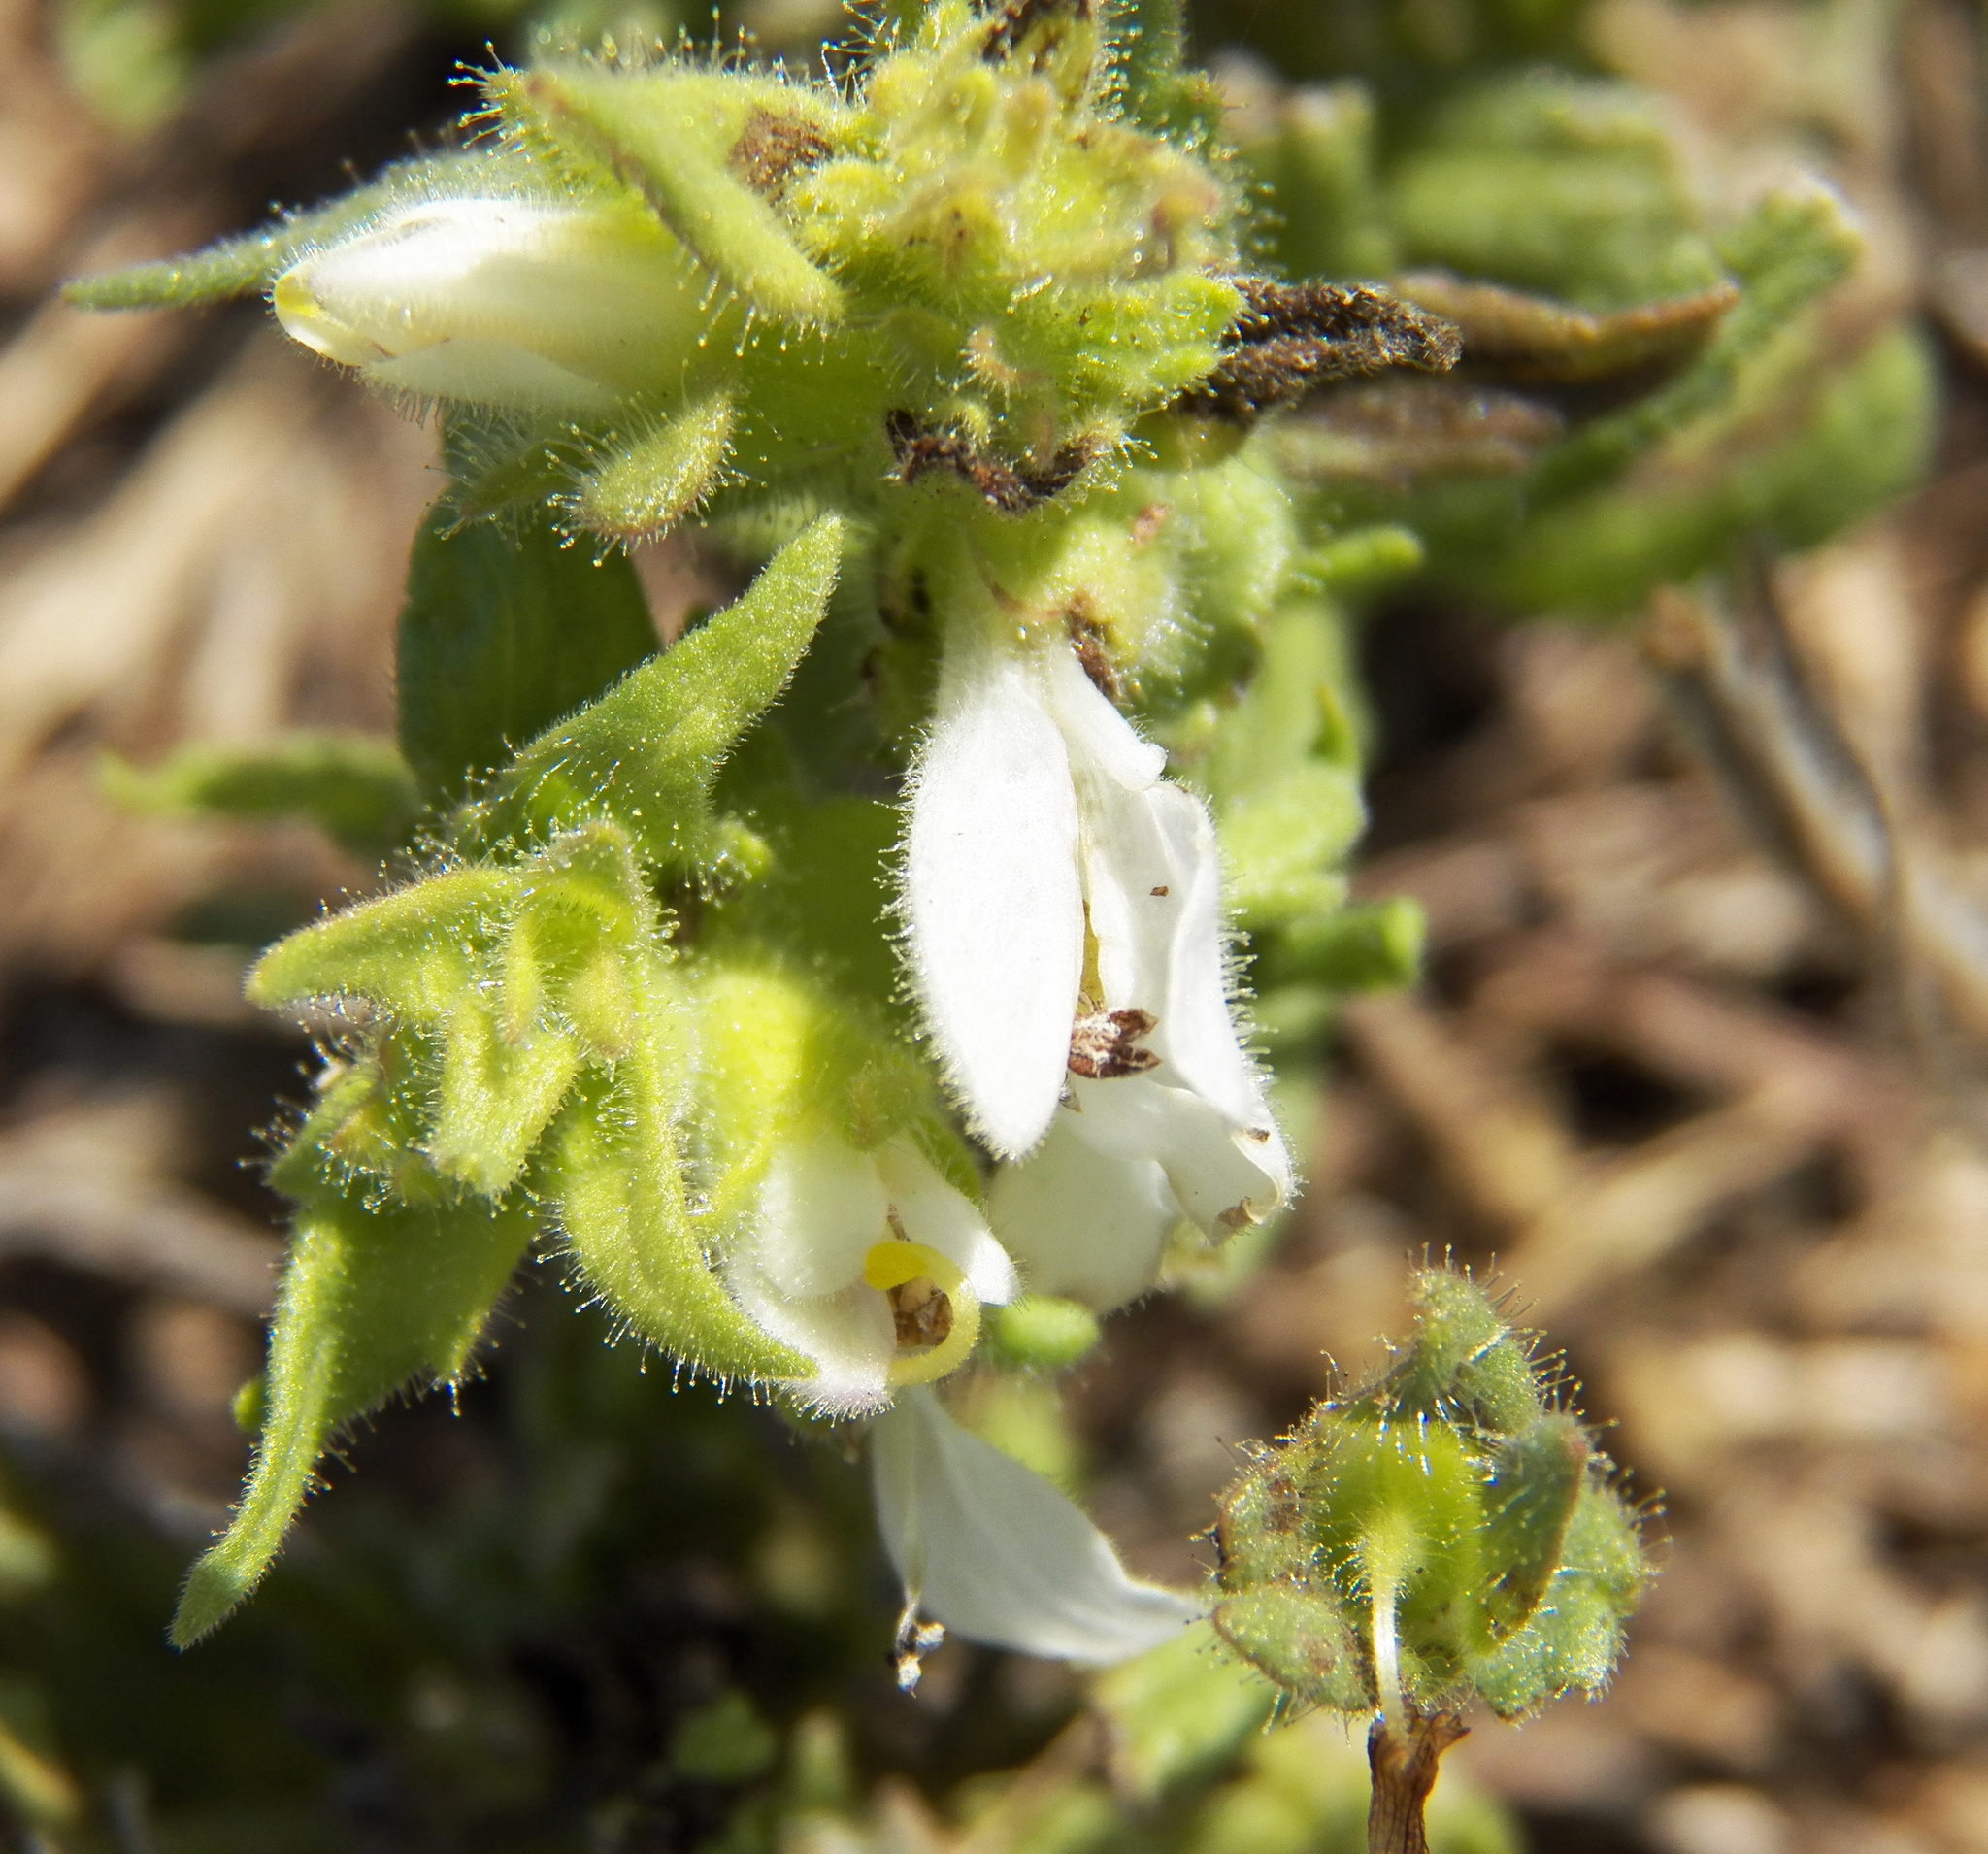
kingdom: Plantae
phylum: Tracheophyta
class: Magnoliopsida
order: Lamiales
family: Orobanchaceae
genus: Bellardia
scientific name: Bellardia trixago
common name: Mediterranean lineseed
